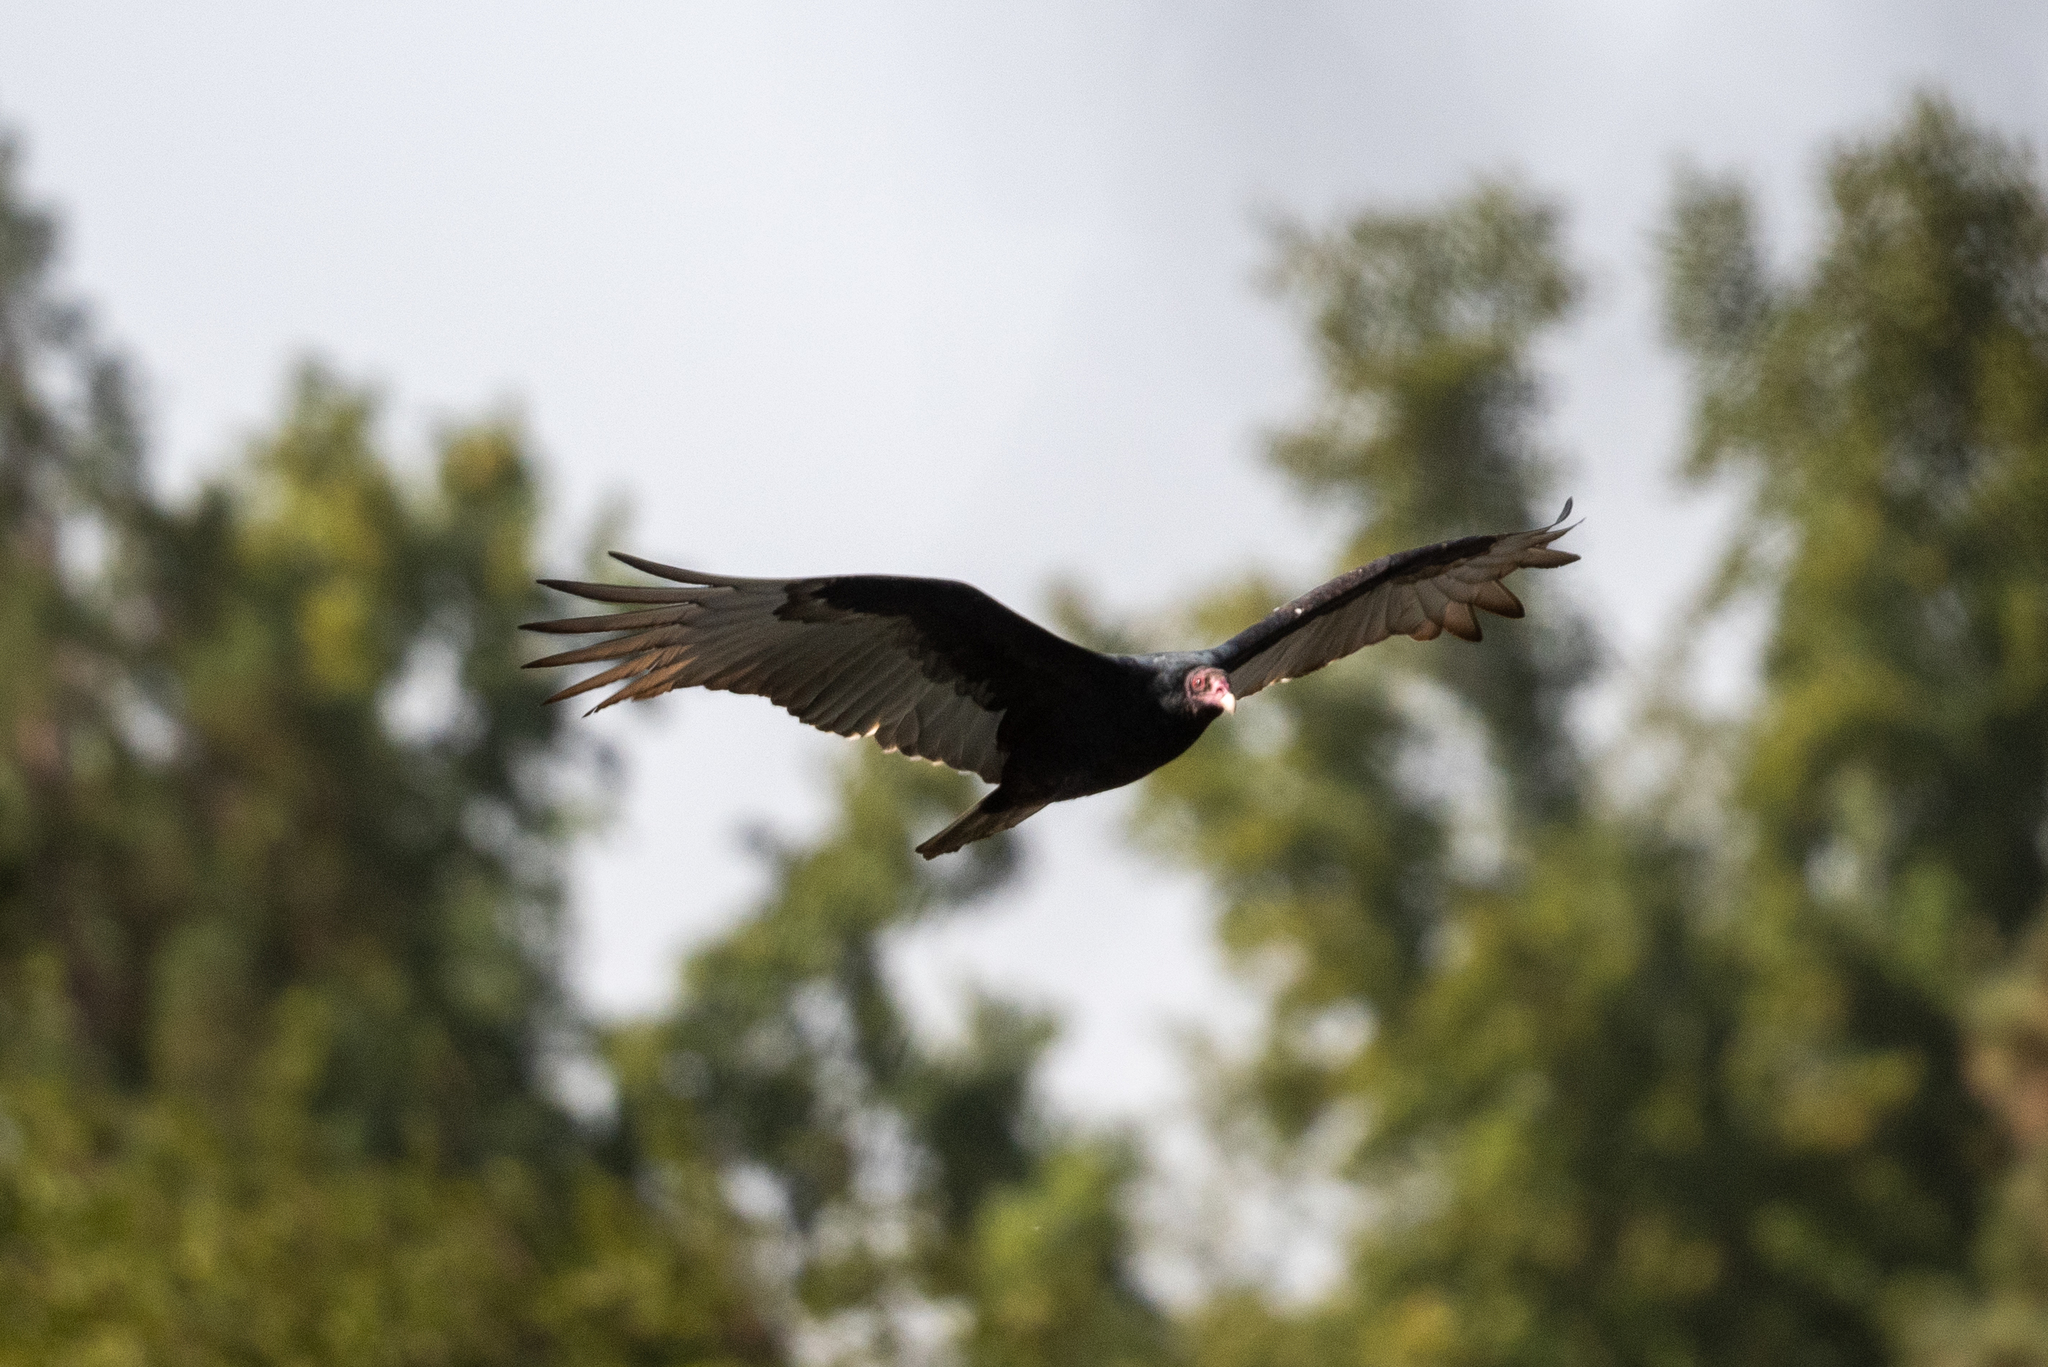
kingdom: Animalia
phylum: Chordata
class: Aves
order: Accipitriformes
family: Cathartidae
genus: Cathartes
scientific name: Cathartes aura
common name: Turkey vulture
